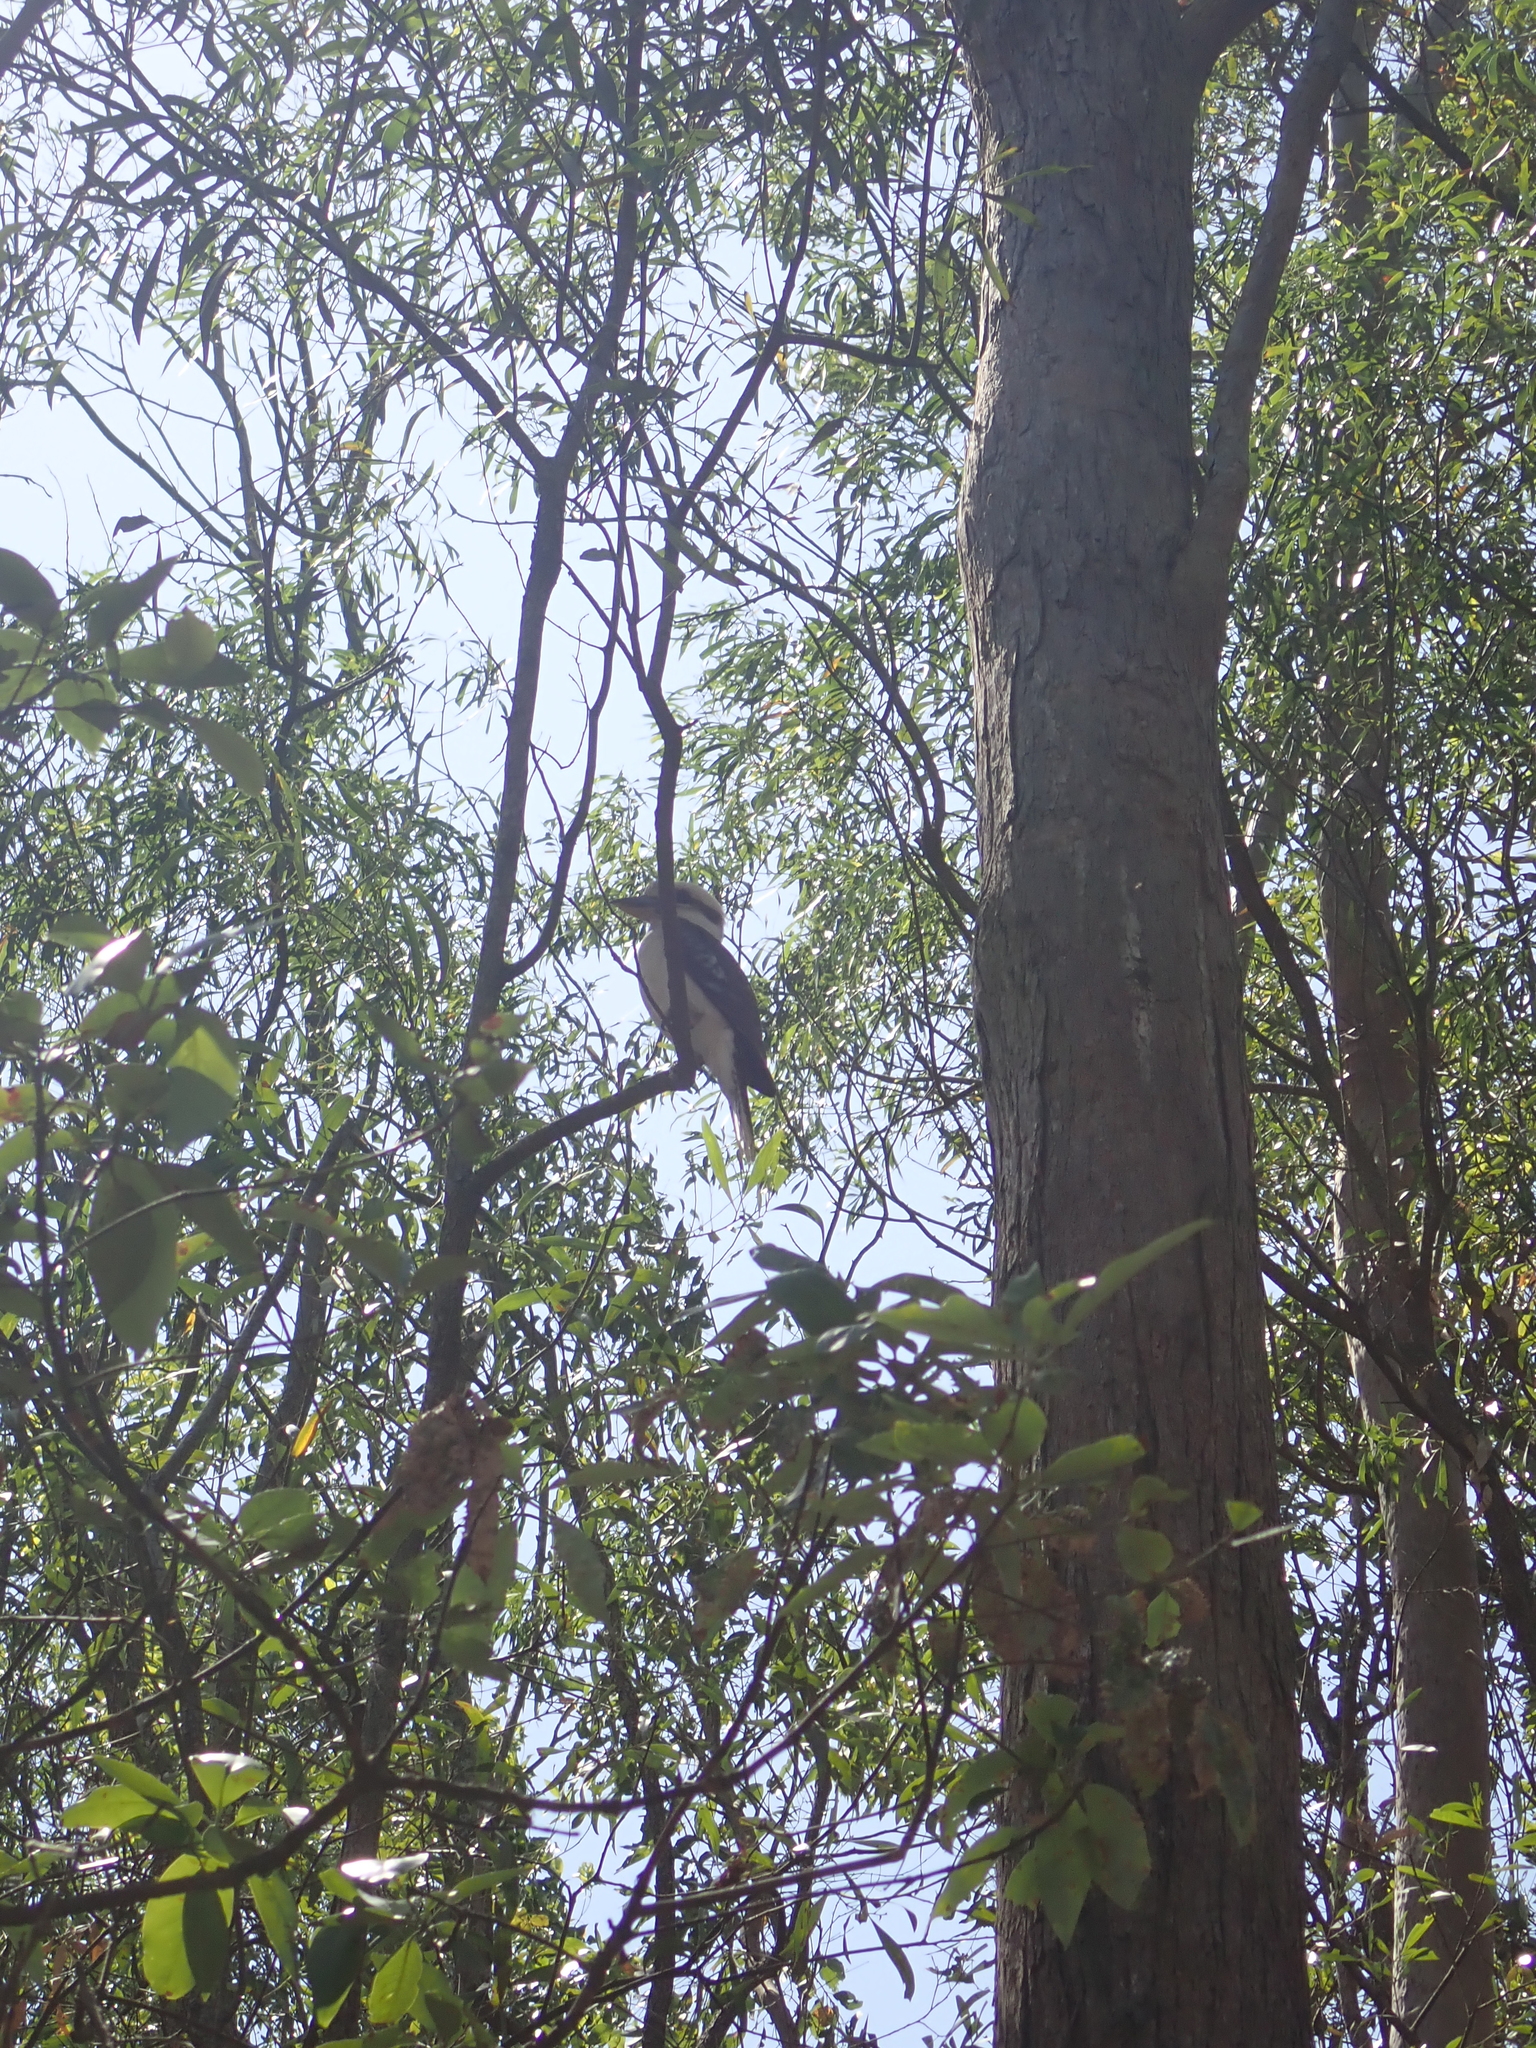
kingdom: Animalia
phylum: Chordata
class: Aves
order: Coraciiformes
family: Alcedinidae
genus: Dacelo
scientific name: Dacelo novaeguineae
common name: Laughing kookaburra
